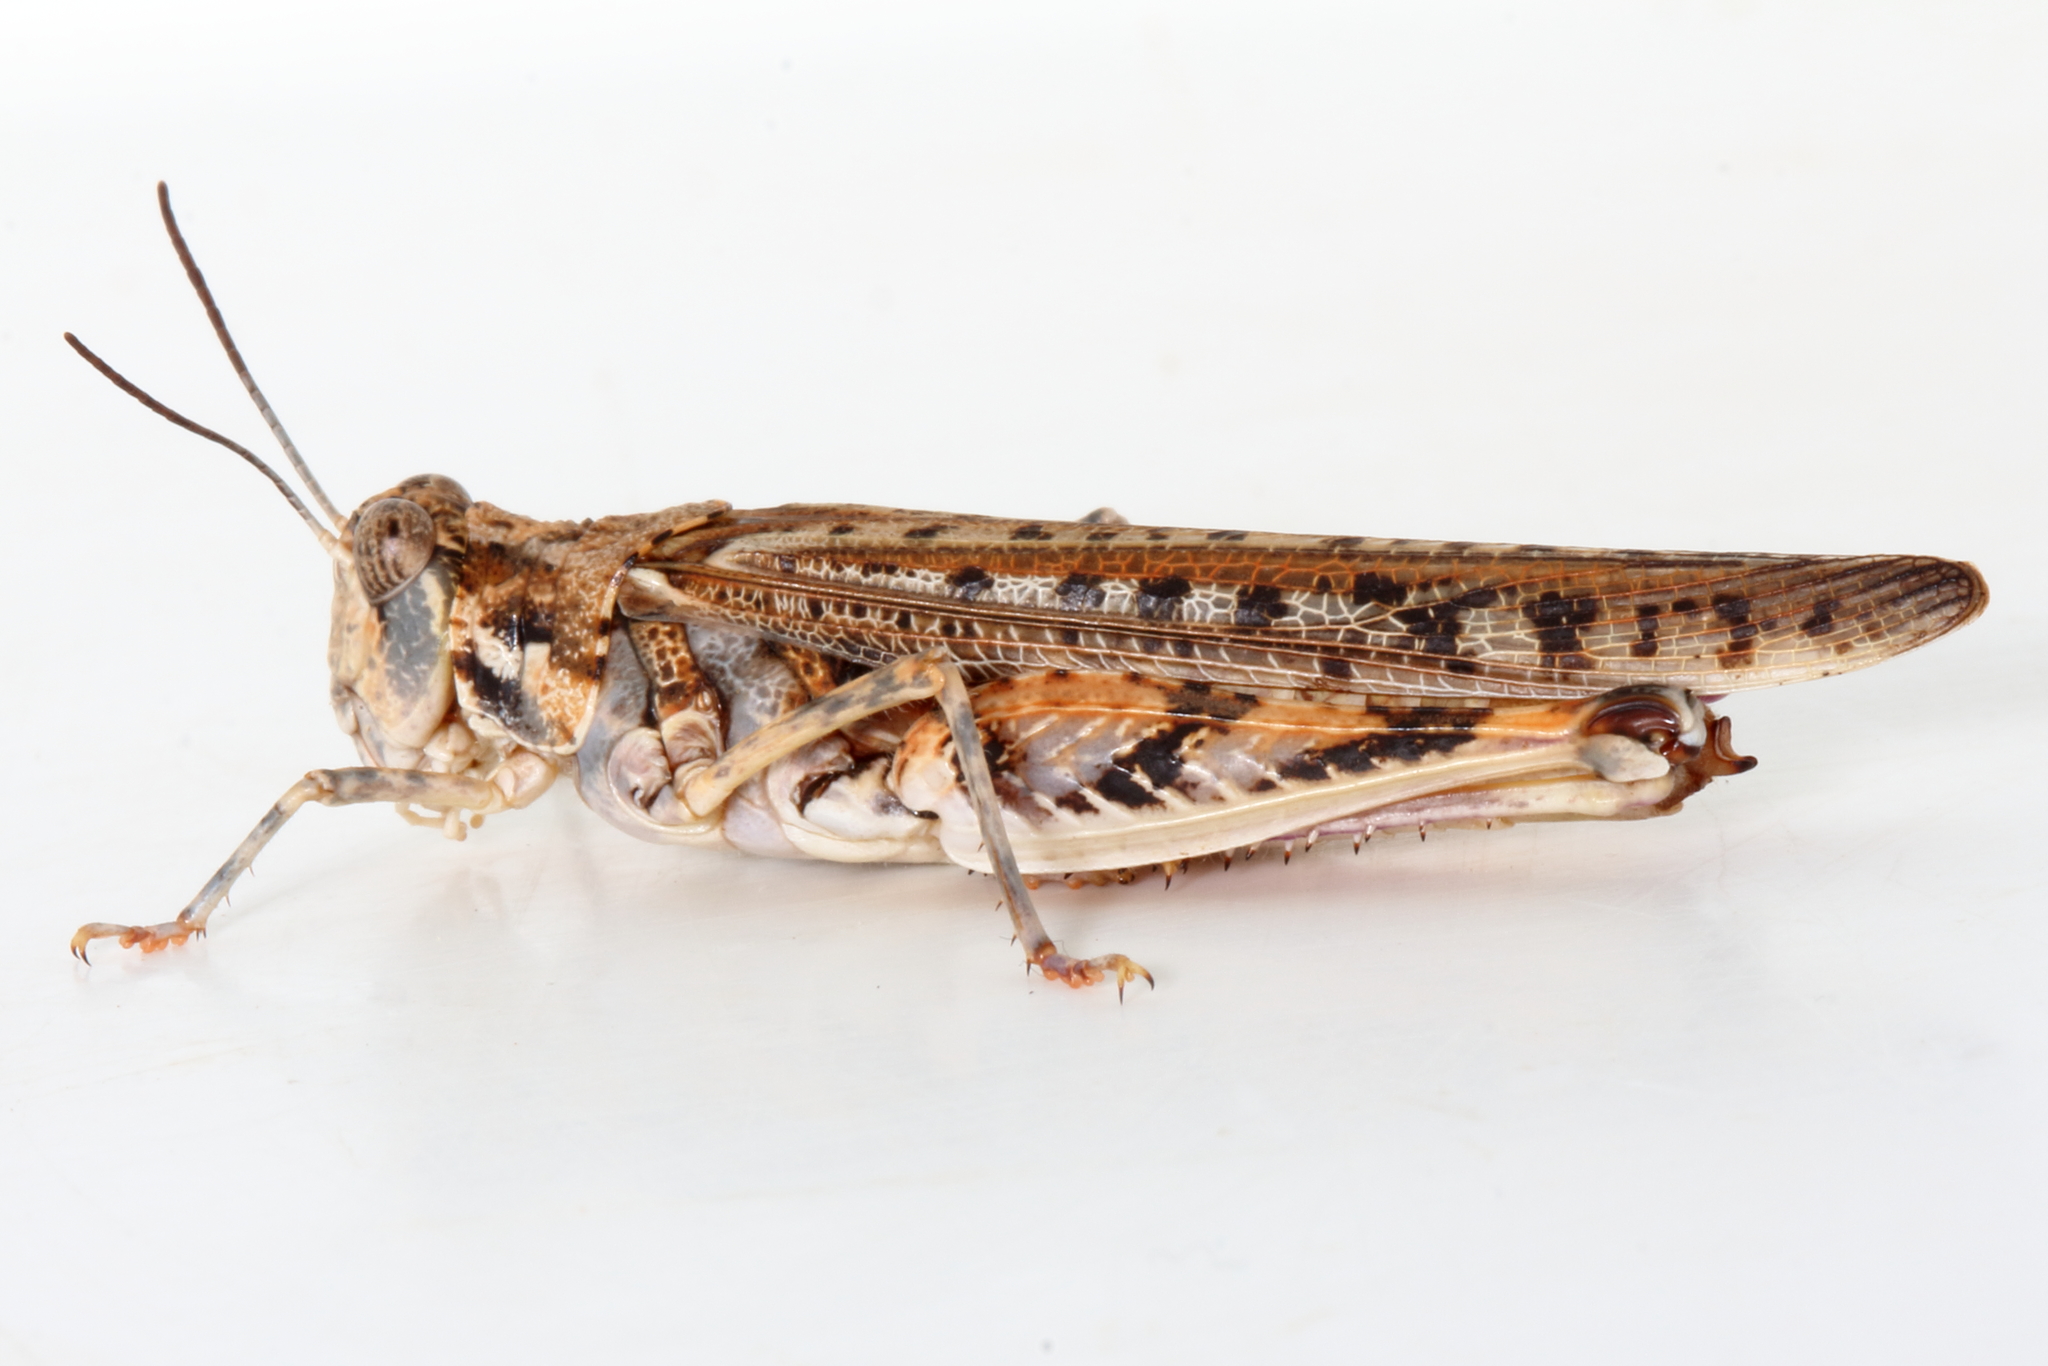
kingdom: Animalia
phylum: Arthropoda
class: Insecta
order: Orthoptera
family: Acrididae
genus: Urnisa
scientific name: Urnisa guttulosa
